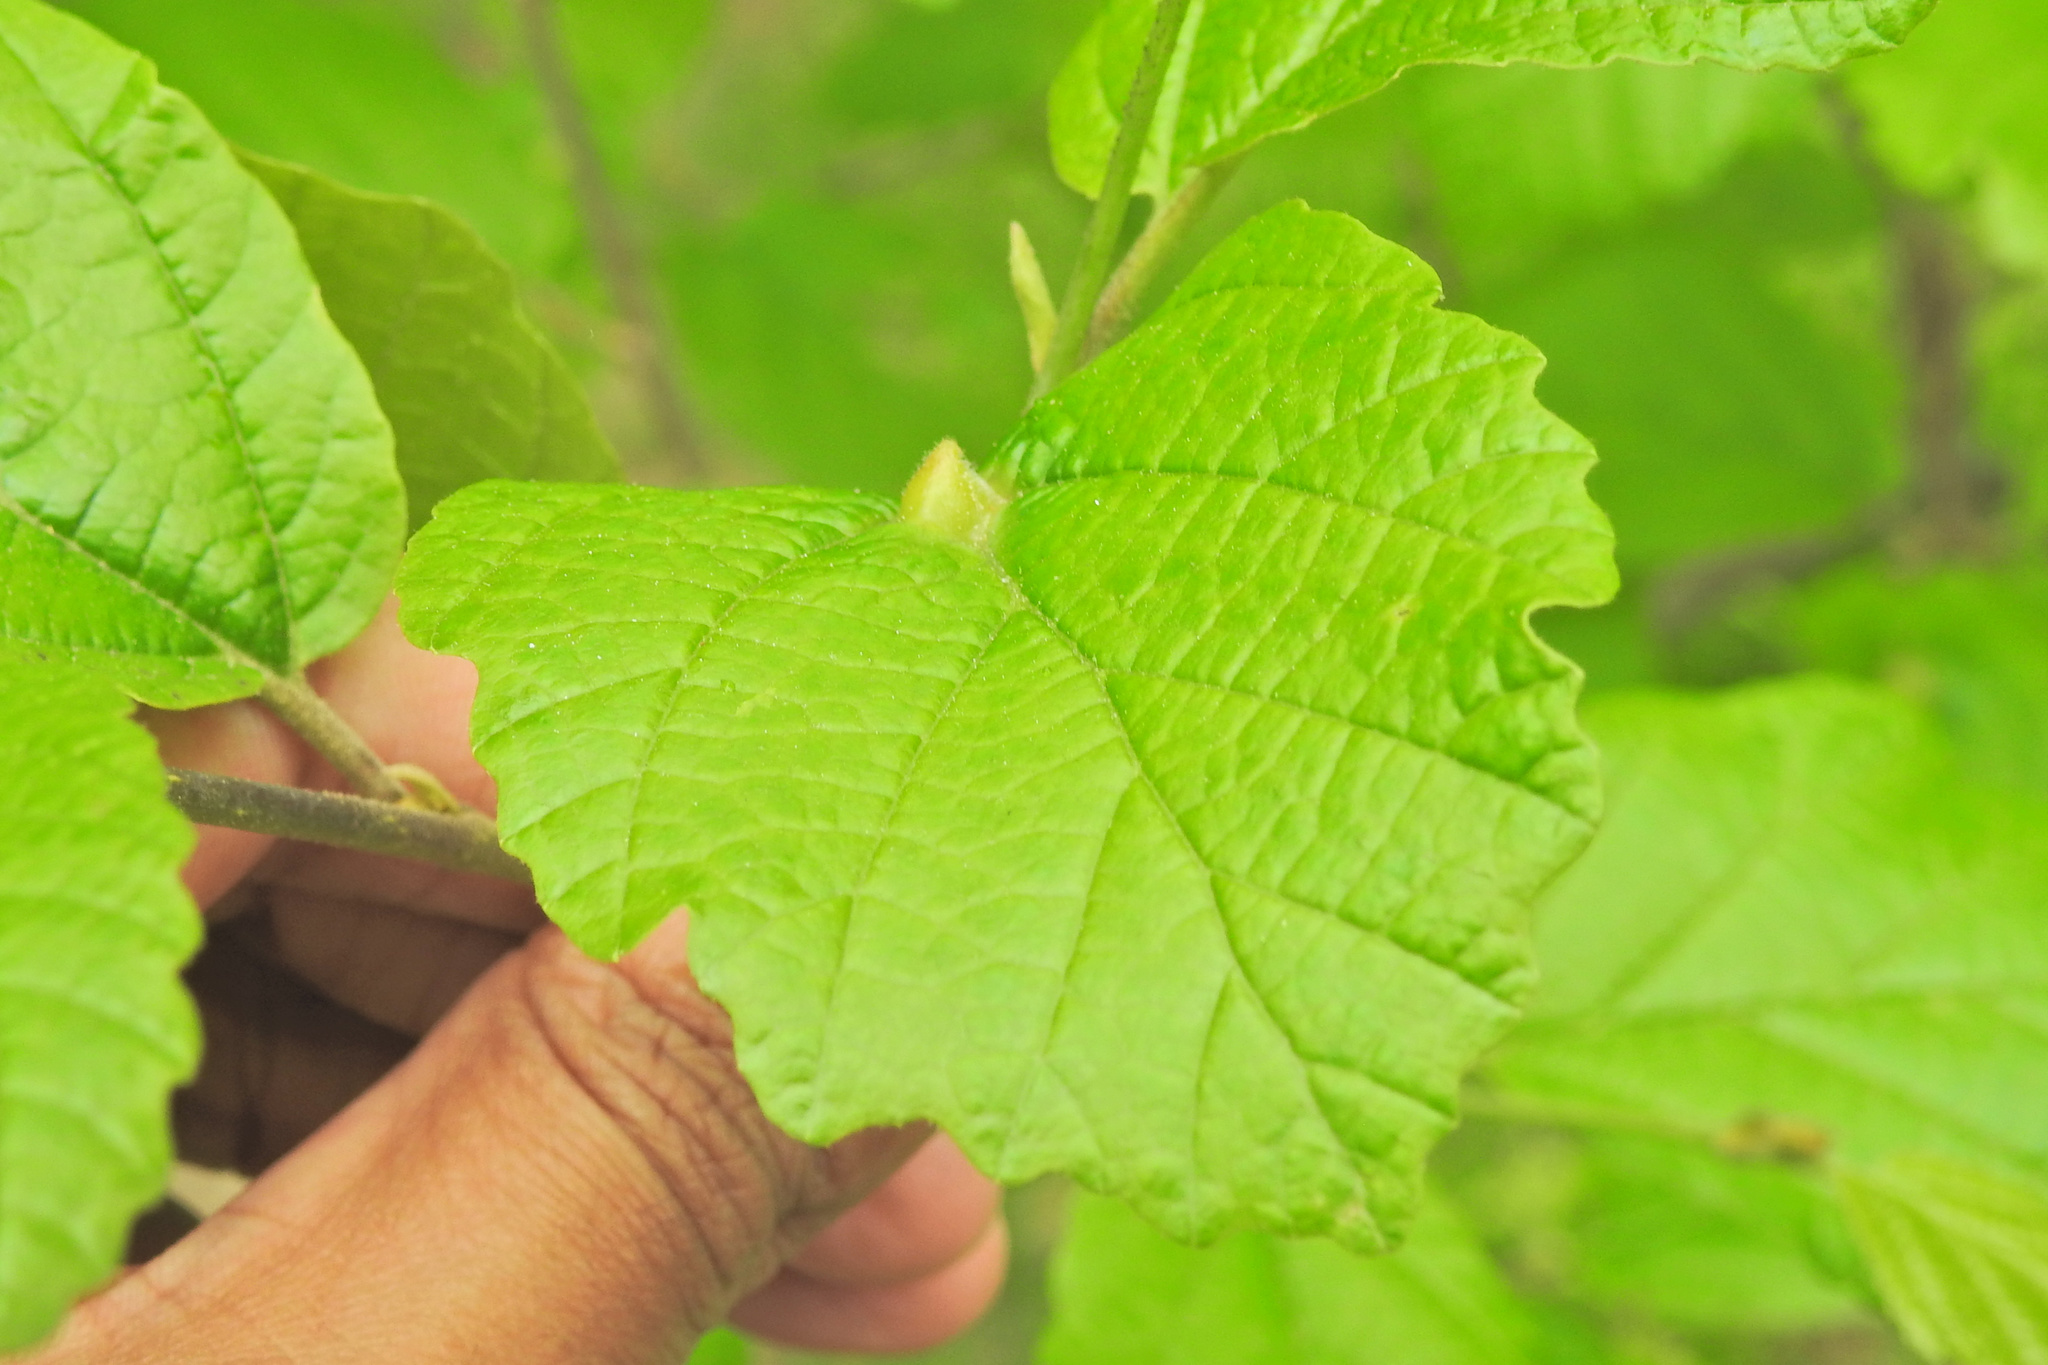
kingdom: Animalia
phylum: Arthropoda
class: Insecta
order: Hemiptera
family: Aphididae
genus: Hormaphis
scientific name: Hormaphis hamamelidis
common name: Witch-hazel cone gall aphid
